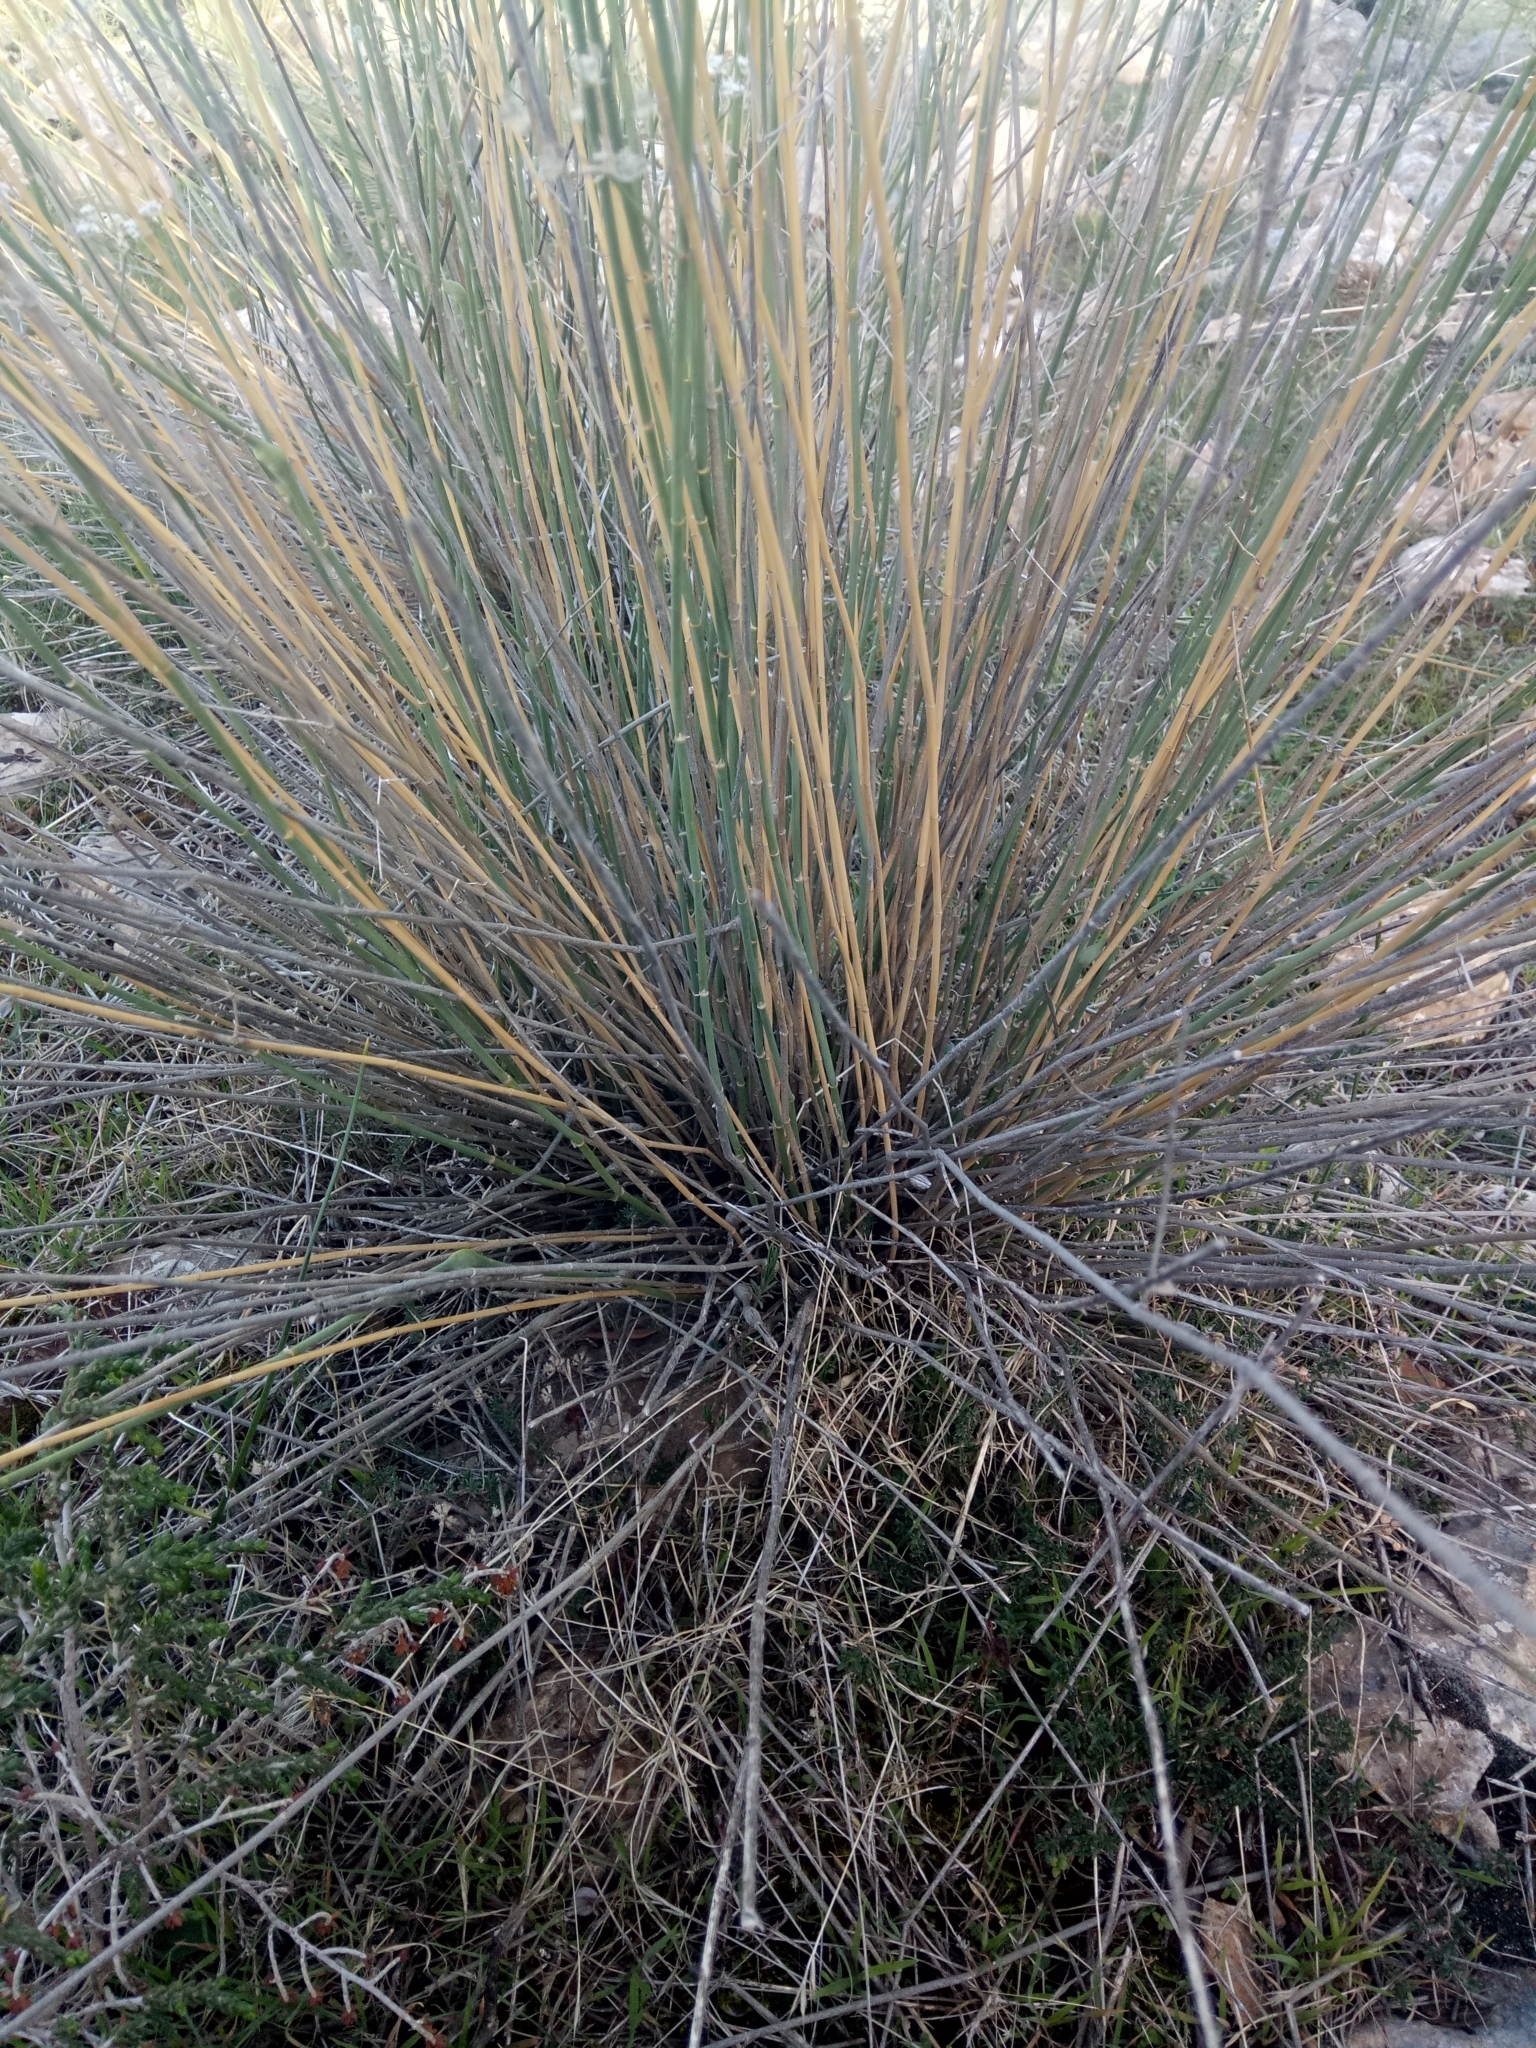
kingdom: Plantae
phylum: Tracheophyta
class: Magnoliopsida
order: Apiales
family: Apiaceae
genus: Deverra
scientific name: Deverra scoparia
